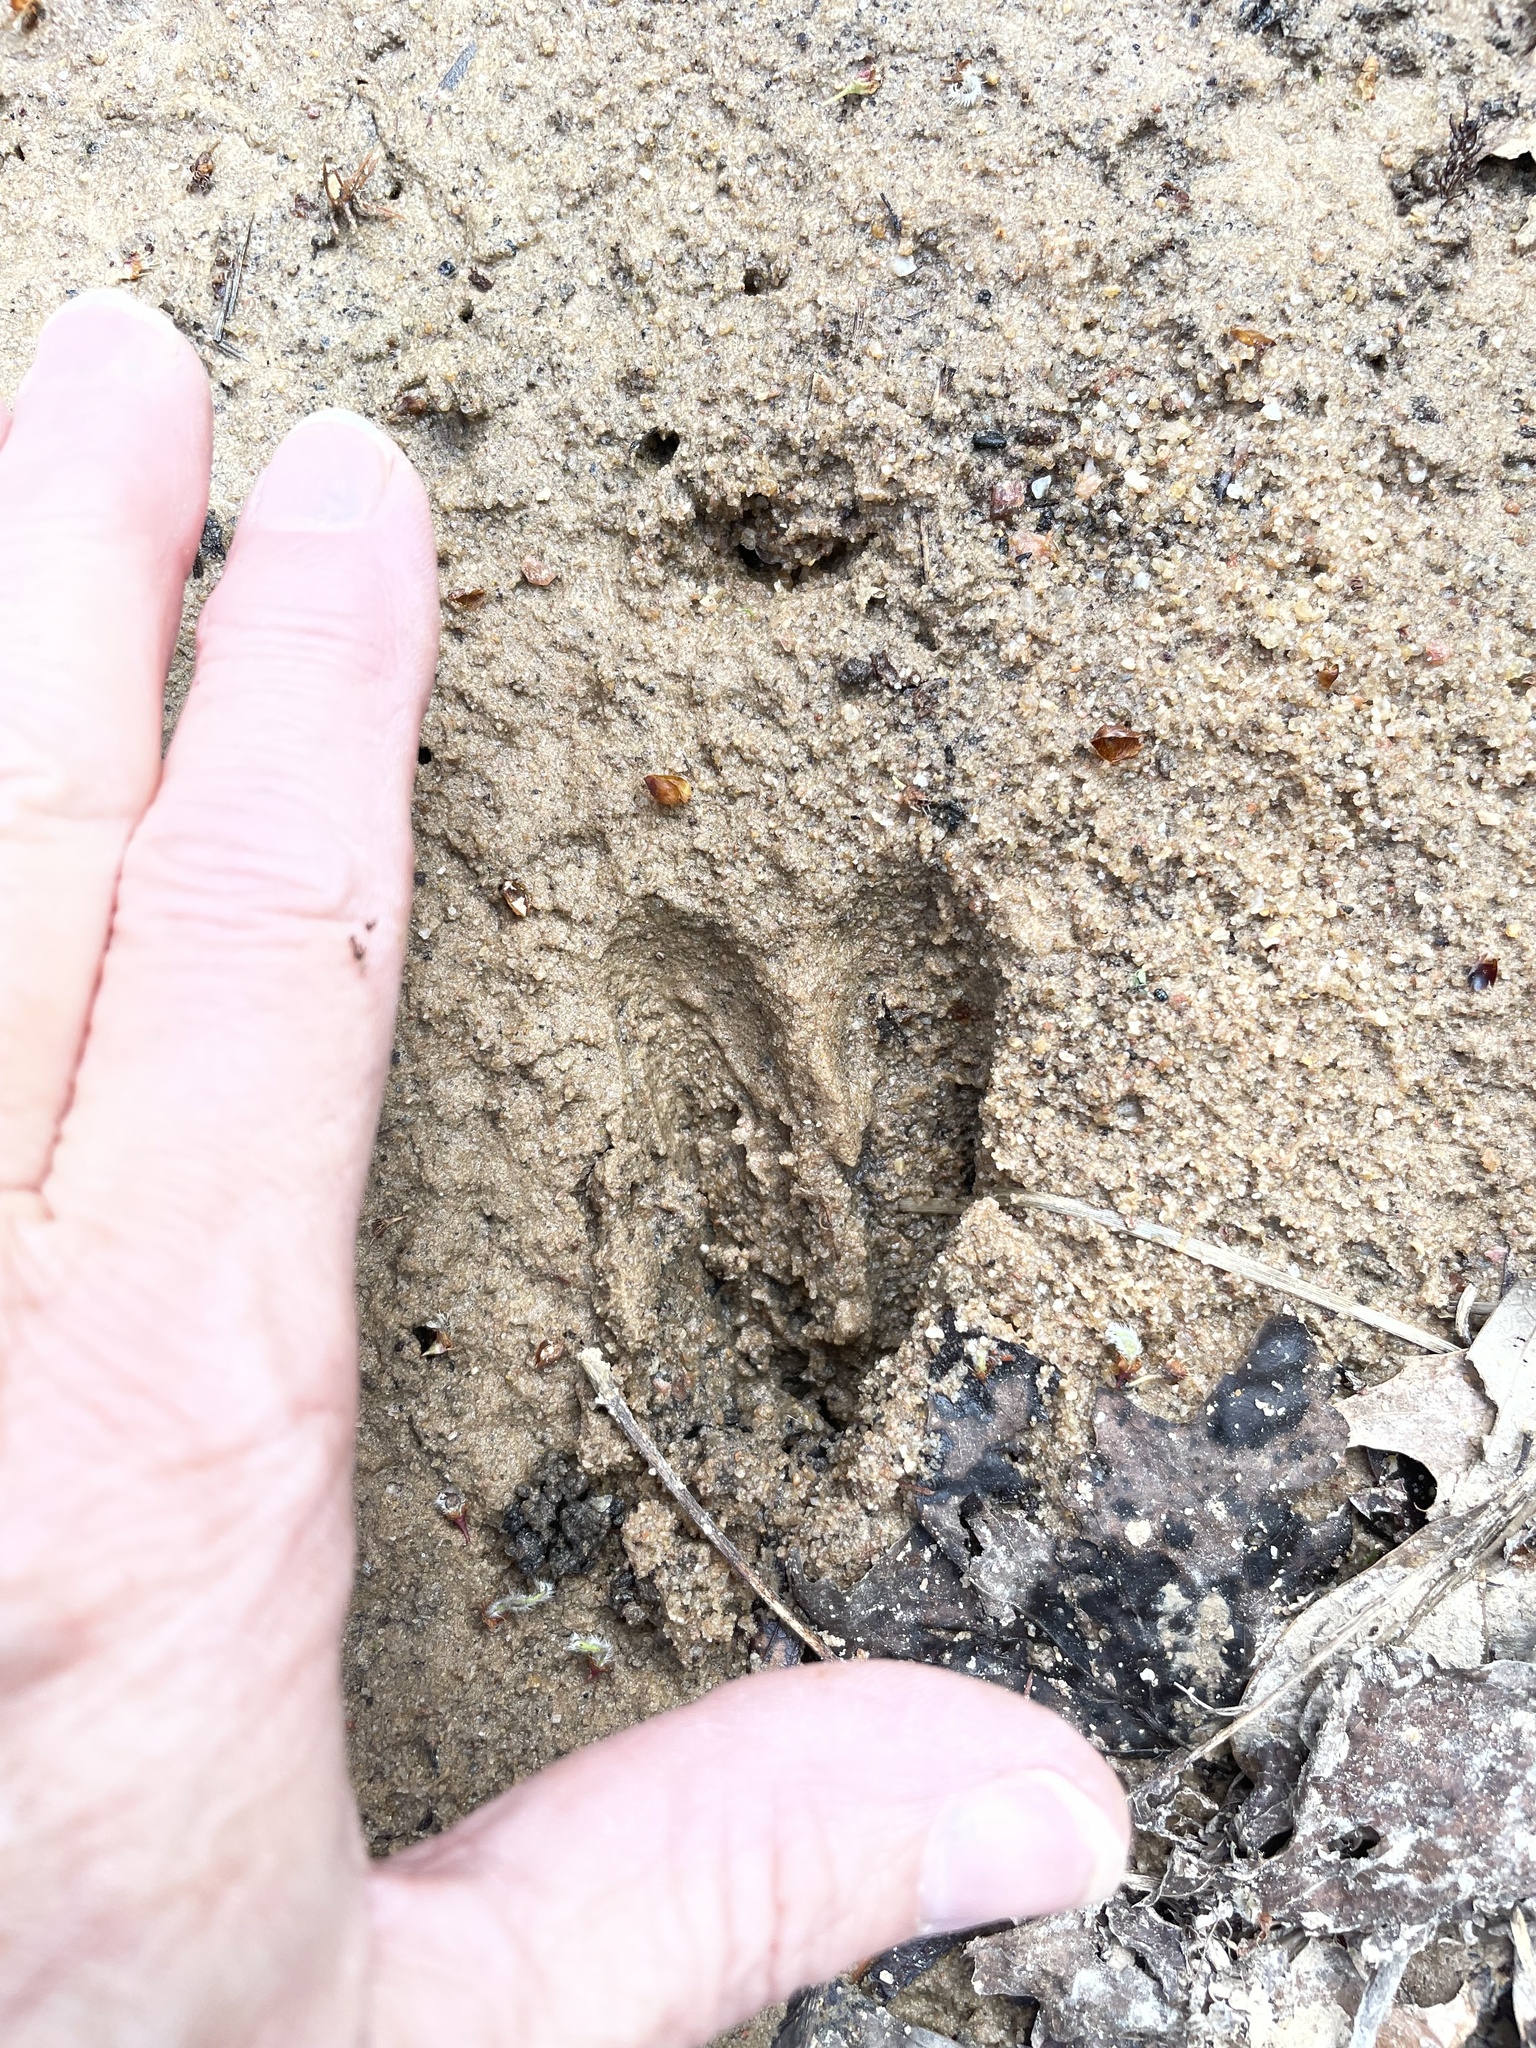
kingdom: Animalia
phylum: Chordata
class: Mammalia
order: Artiodactyla
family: Cervidae
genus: Odocoileus
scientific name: Odocoileus virginianus
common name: White-tailed deer
